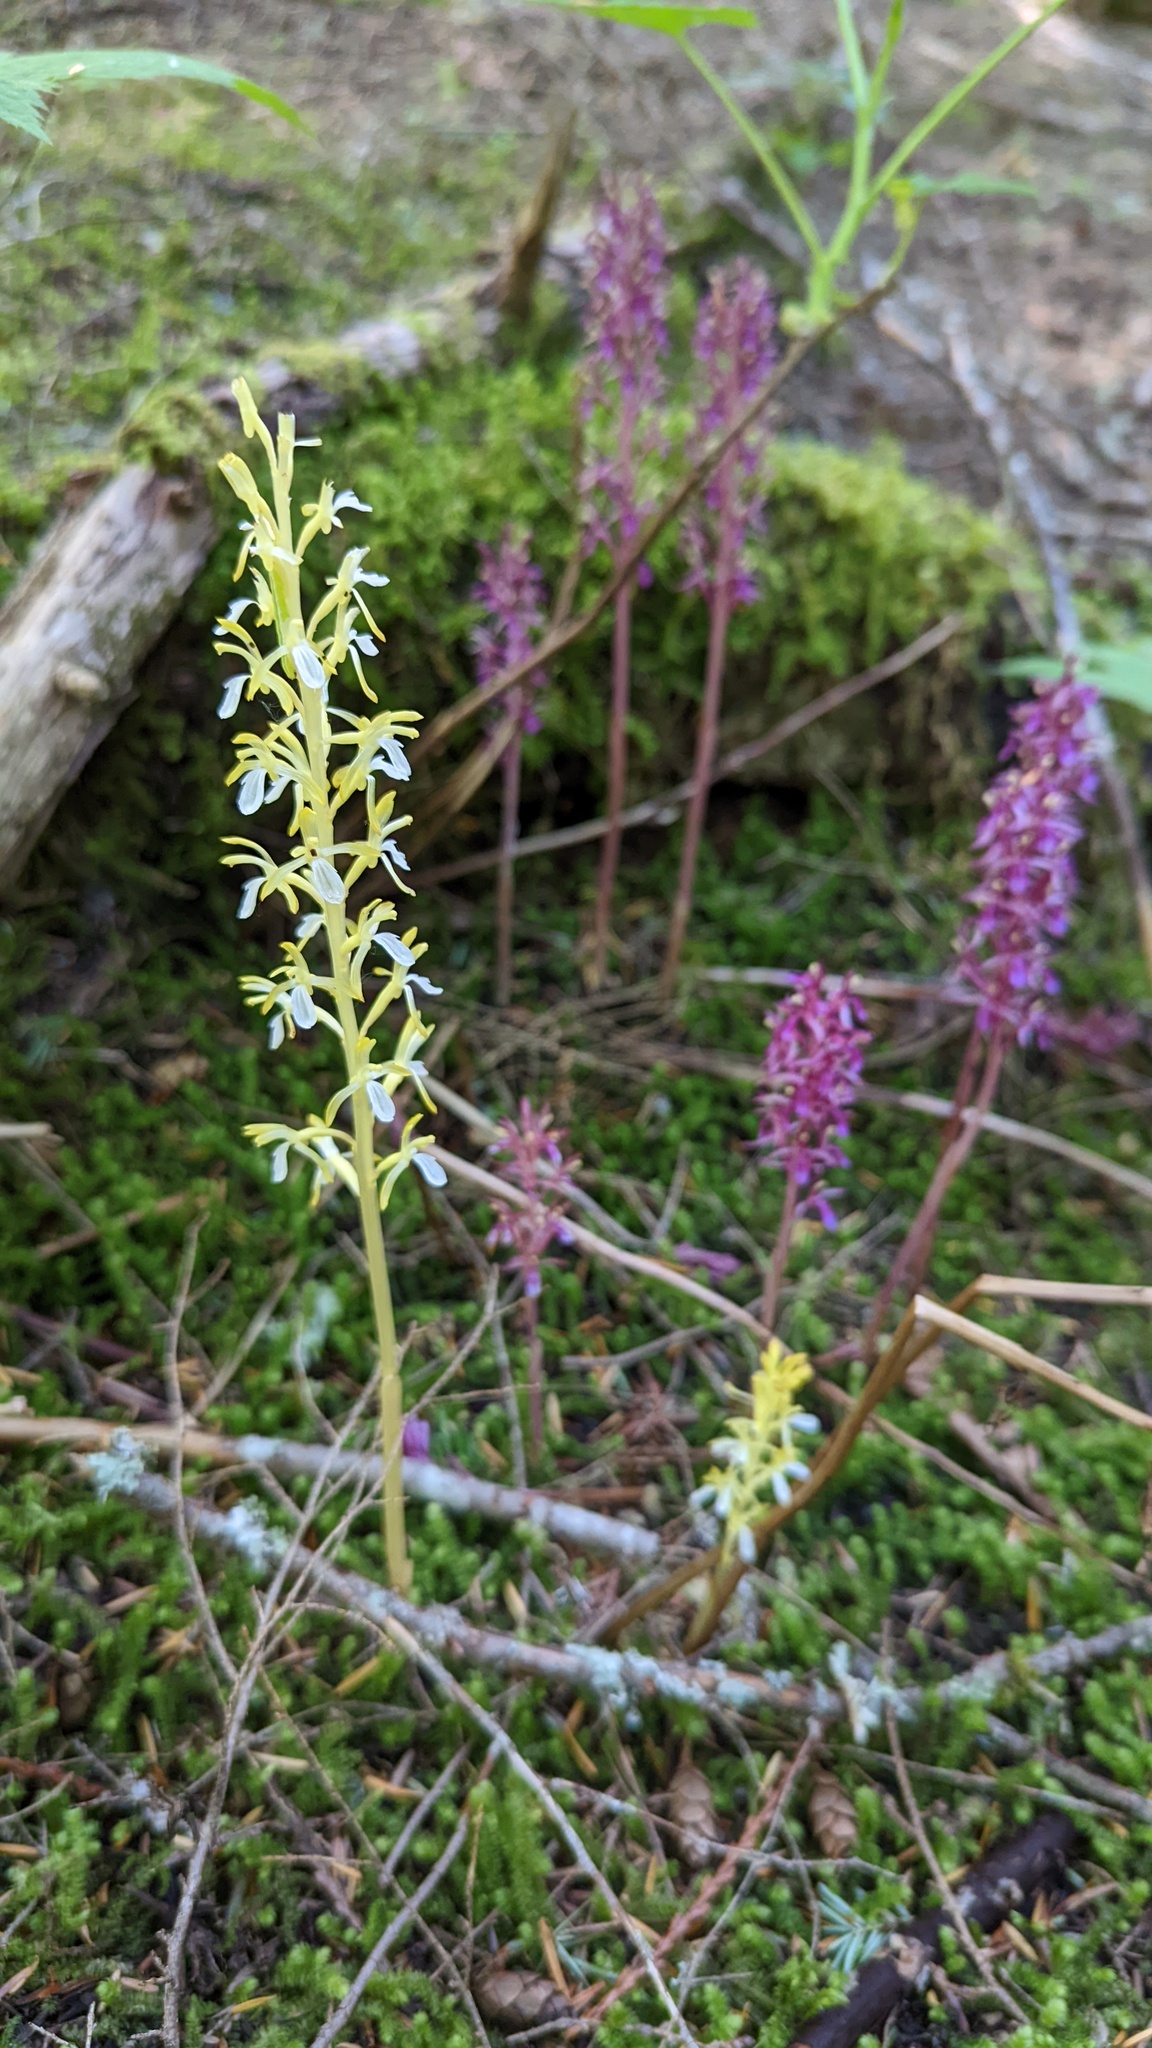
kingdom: Plantae
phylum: Tracheophyta
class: Liliopsida
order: Asparagales
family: Orchidaceae
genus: Corallorhiza
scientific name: Corallorhiza mertensiana
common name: Pacific coralroot
